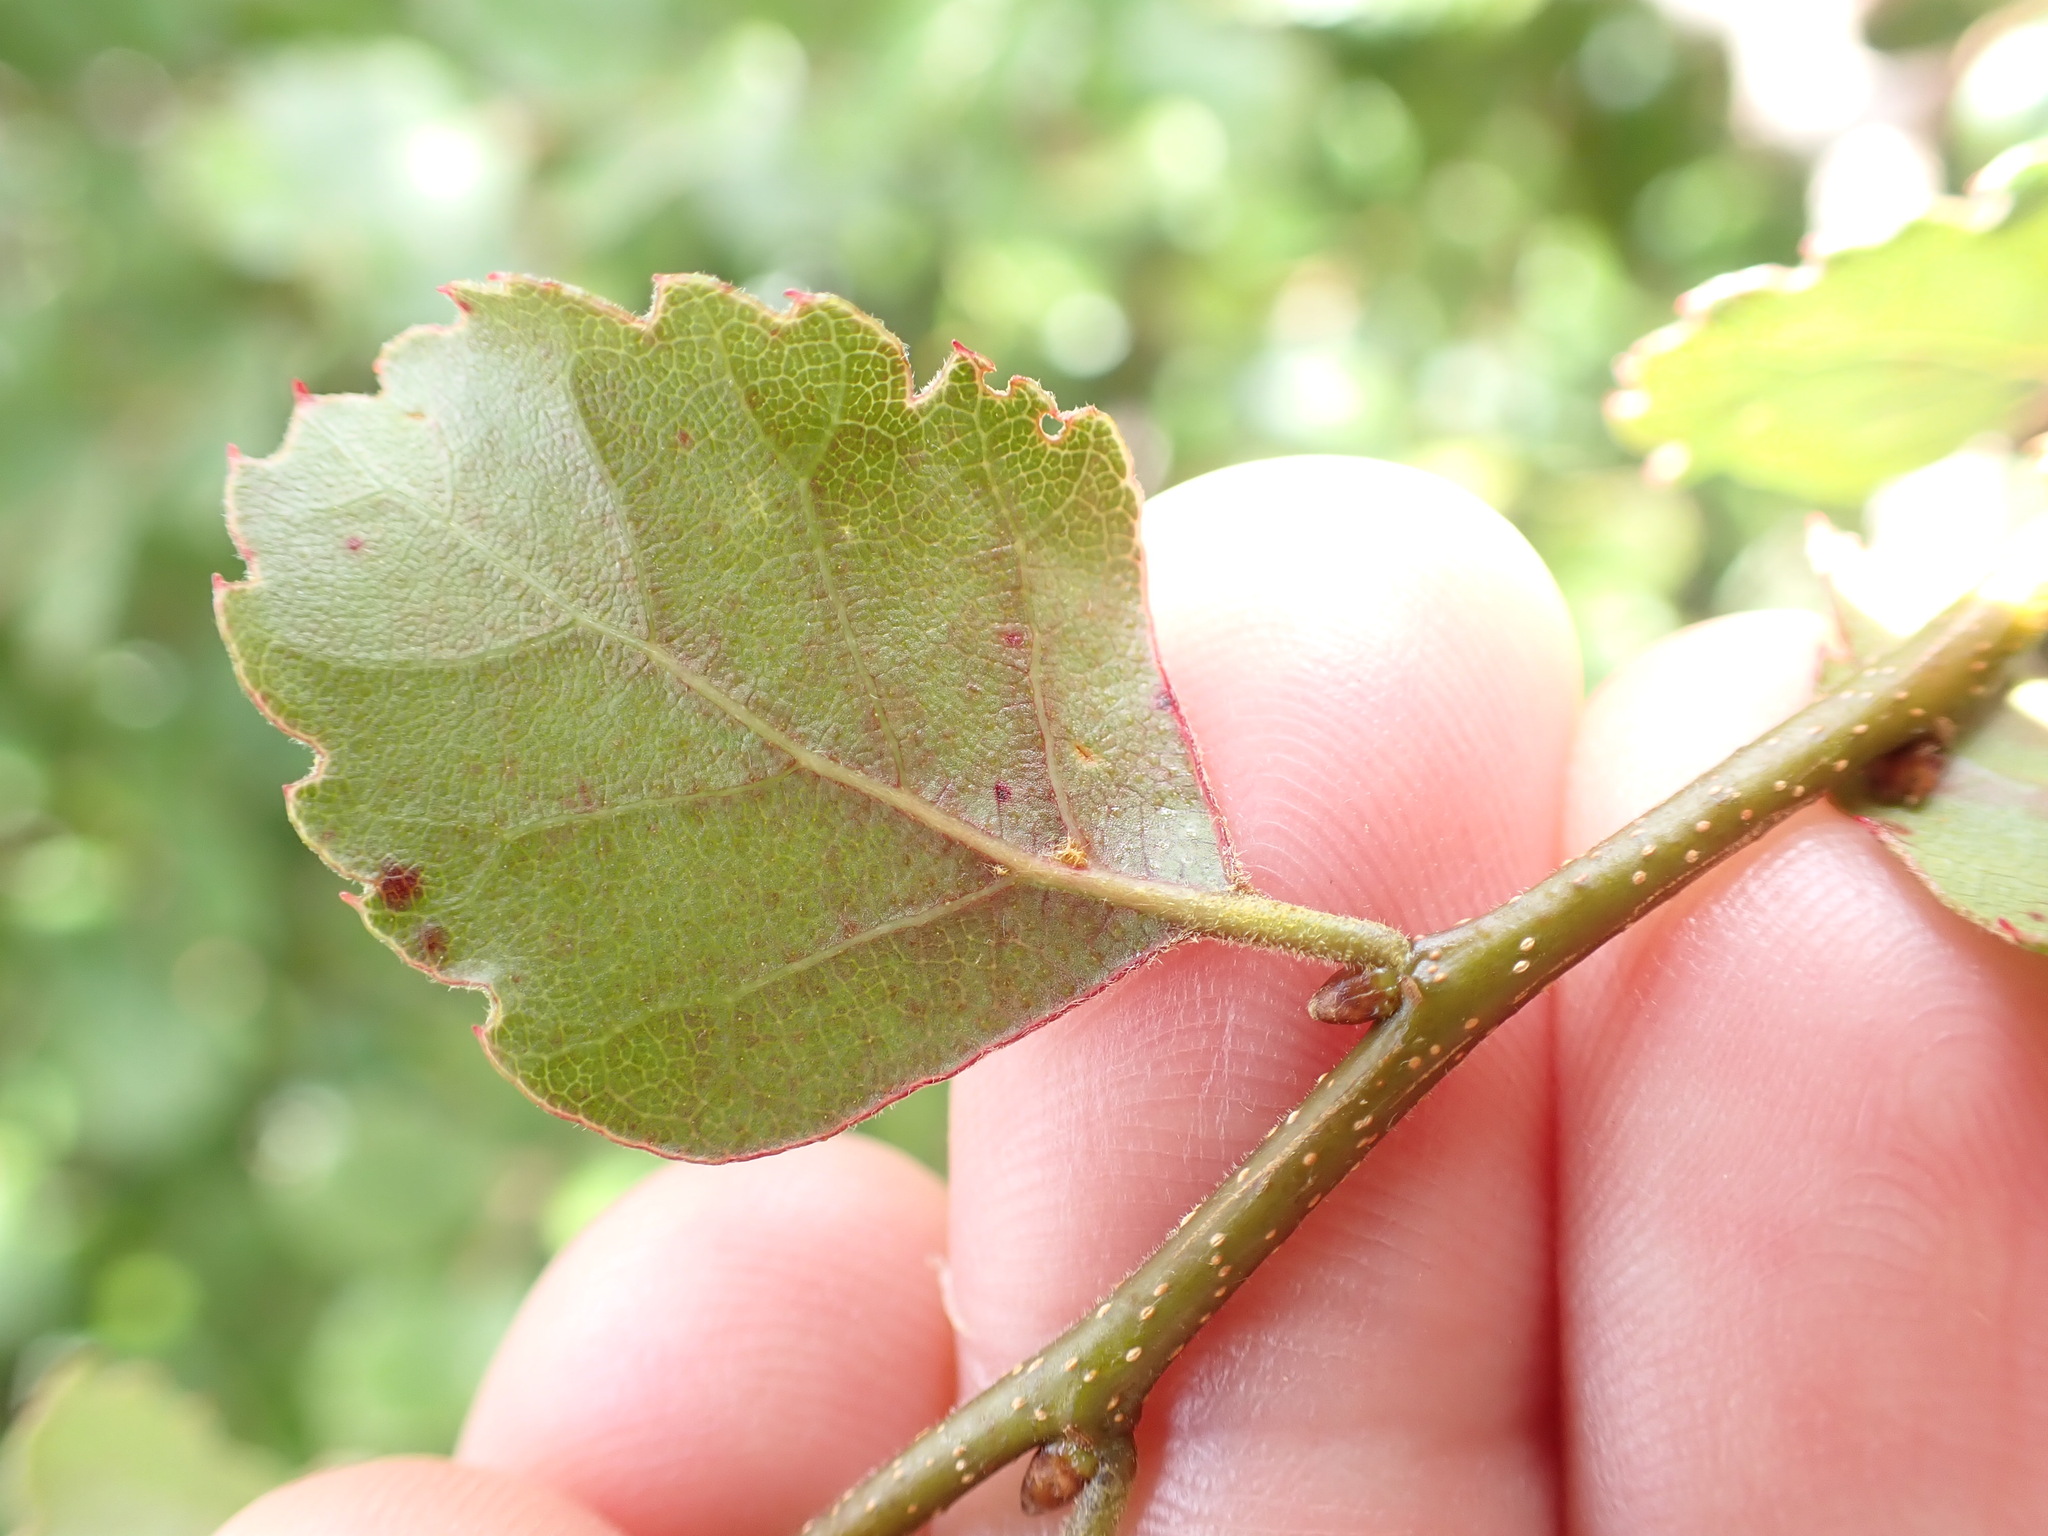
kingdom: Plantae
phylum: Tracheophyta
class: Magnoliopsida
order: Fagales
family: Nothofagaceae
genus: Nothofagus
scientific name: Nothofagus fusca
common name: Red beech
